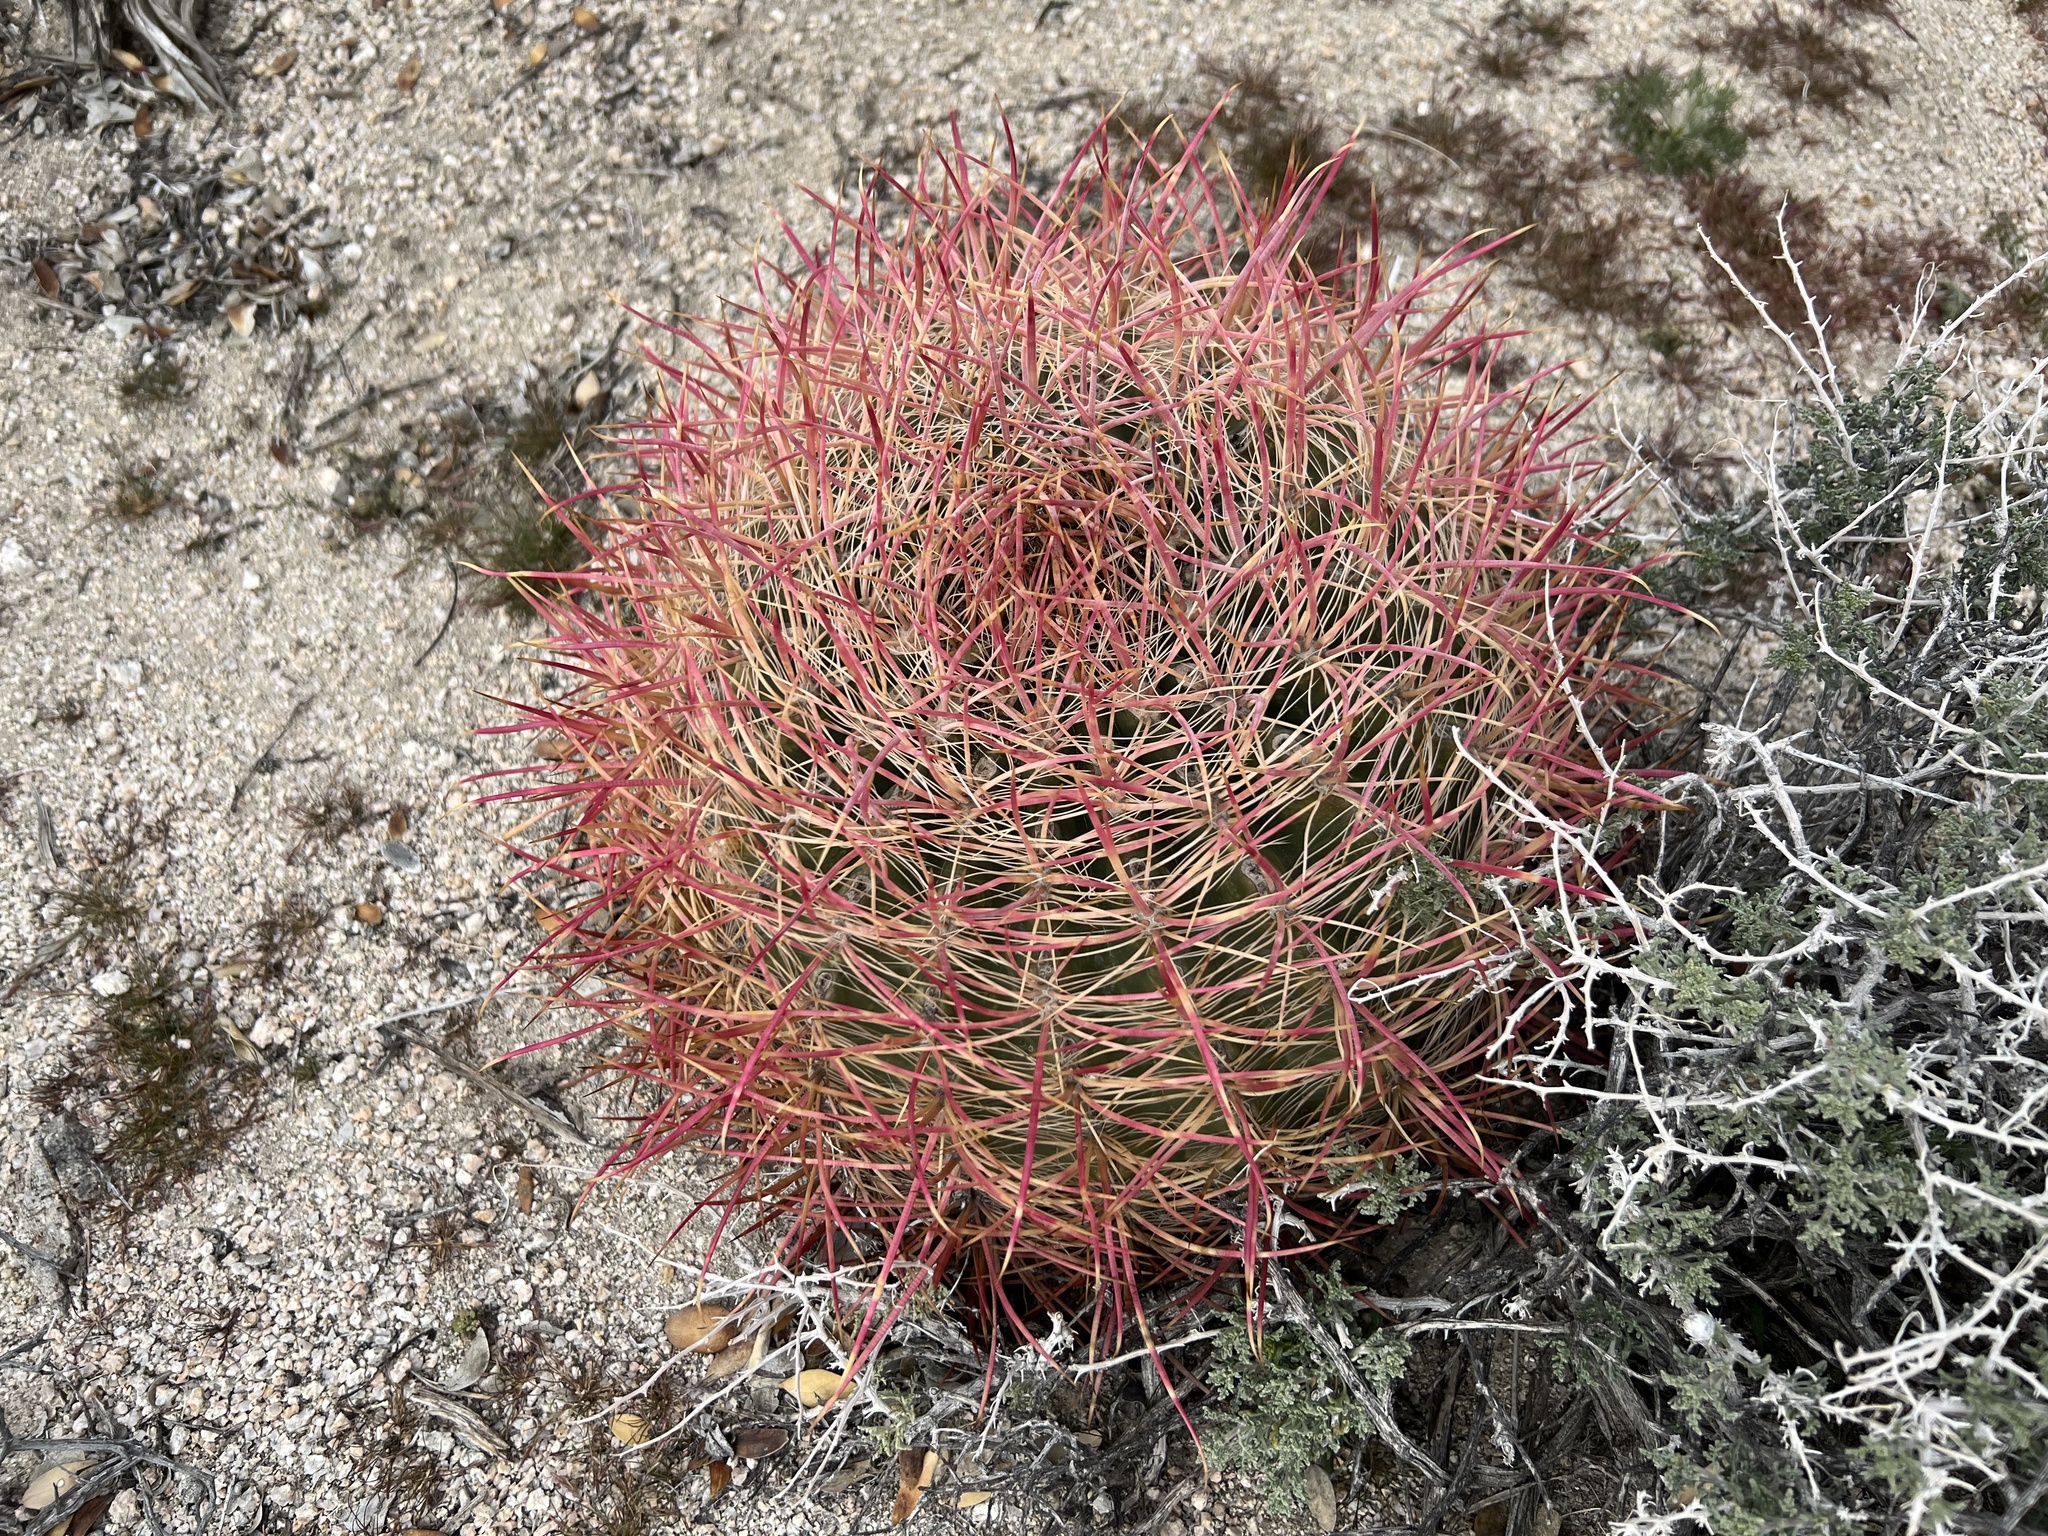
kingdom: Plantae
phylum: Tracheophyta
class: Magnoliopsida
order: Caryophyllales
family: Cactaceae
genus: Ferocactus
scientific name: Ferocactus cylindraceus
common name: California barrel cactus
